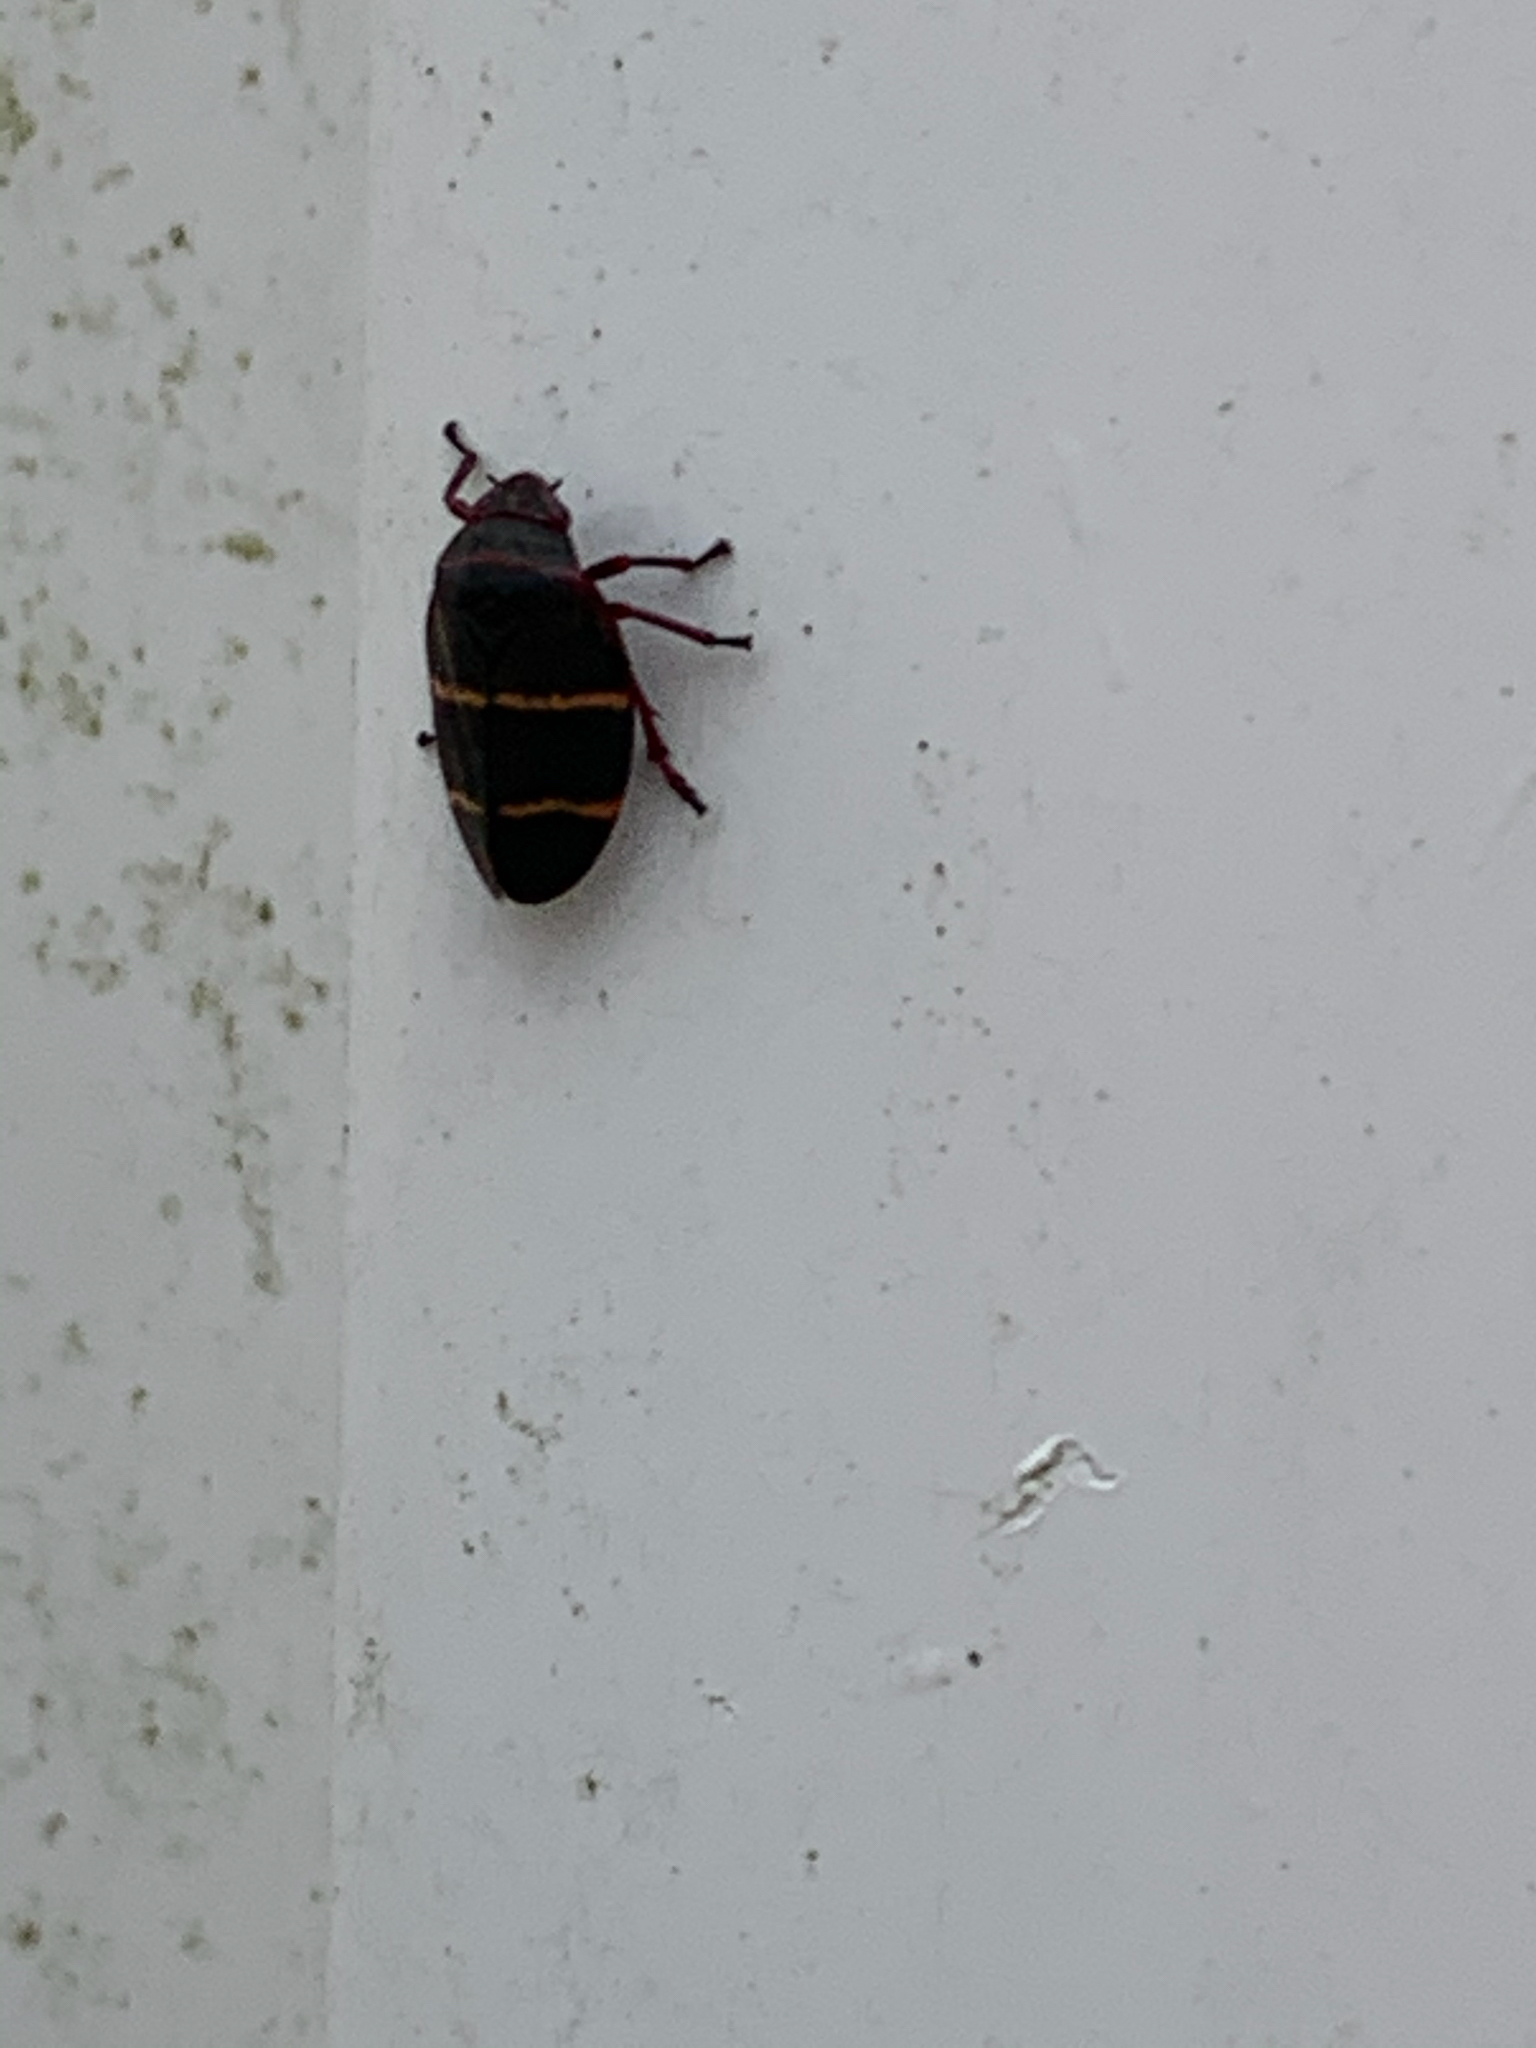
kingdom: Animalia
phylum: Arthropoda
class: Insecta
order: Hemiptera
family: Cercopidae
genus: Prosapia
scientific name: Prosapia bicincta
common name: Twolined spittlebug
